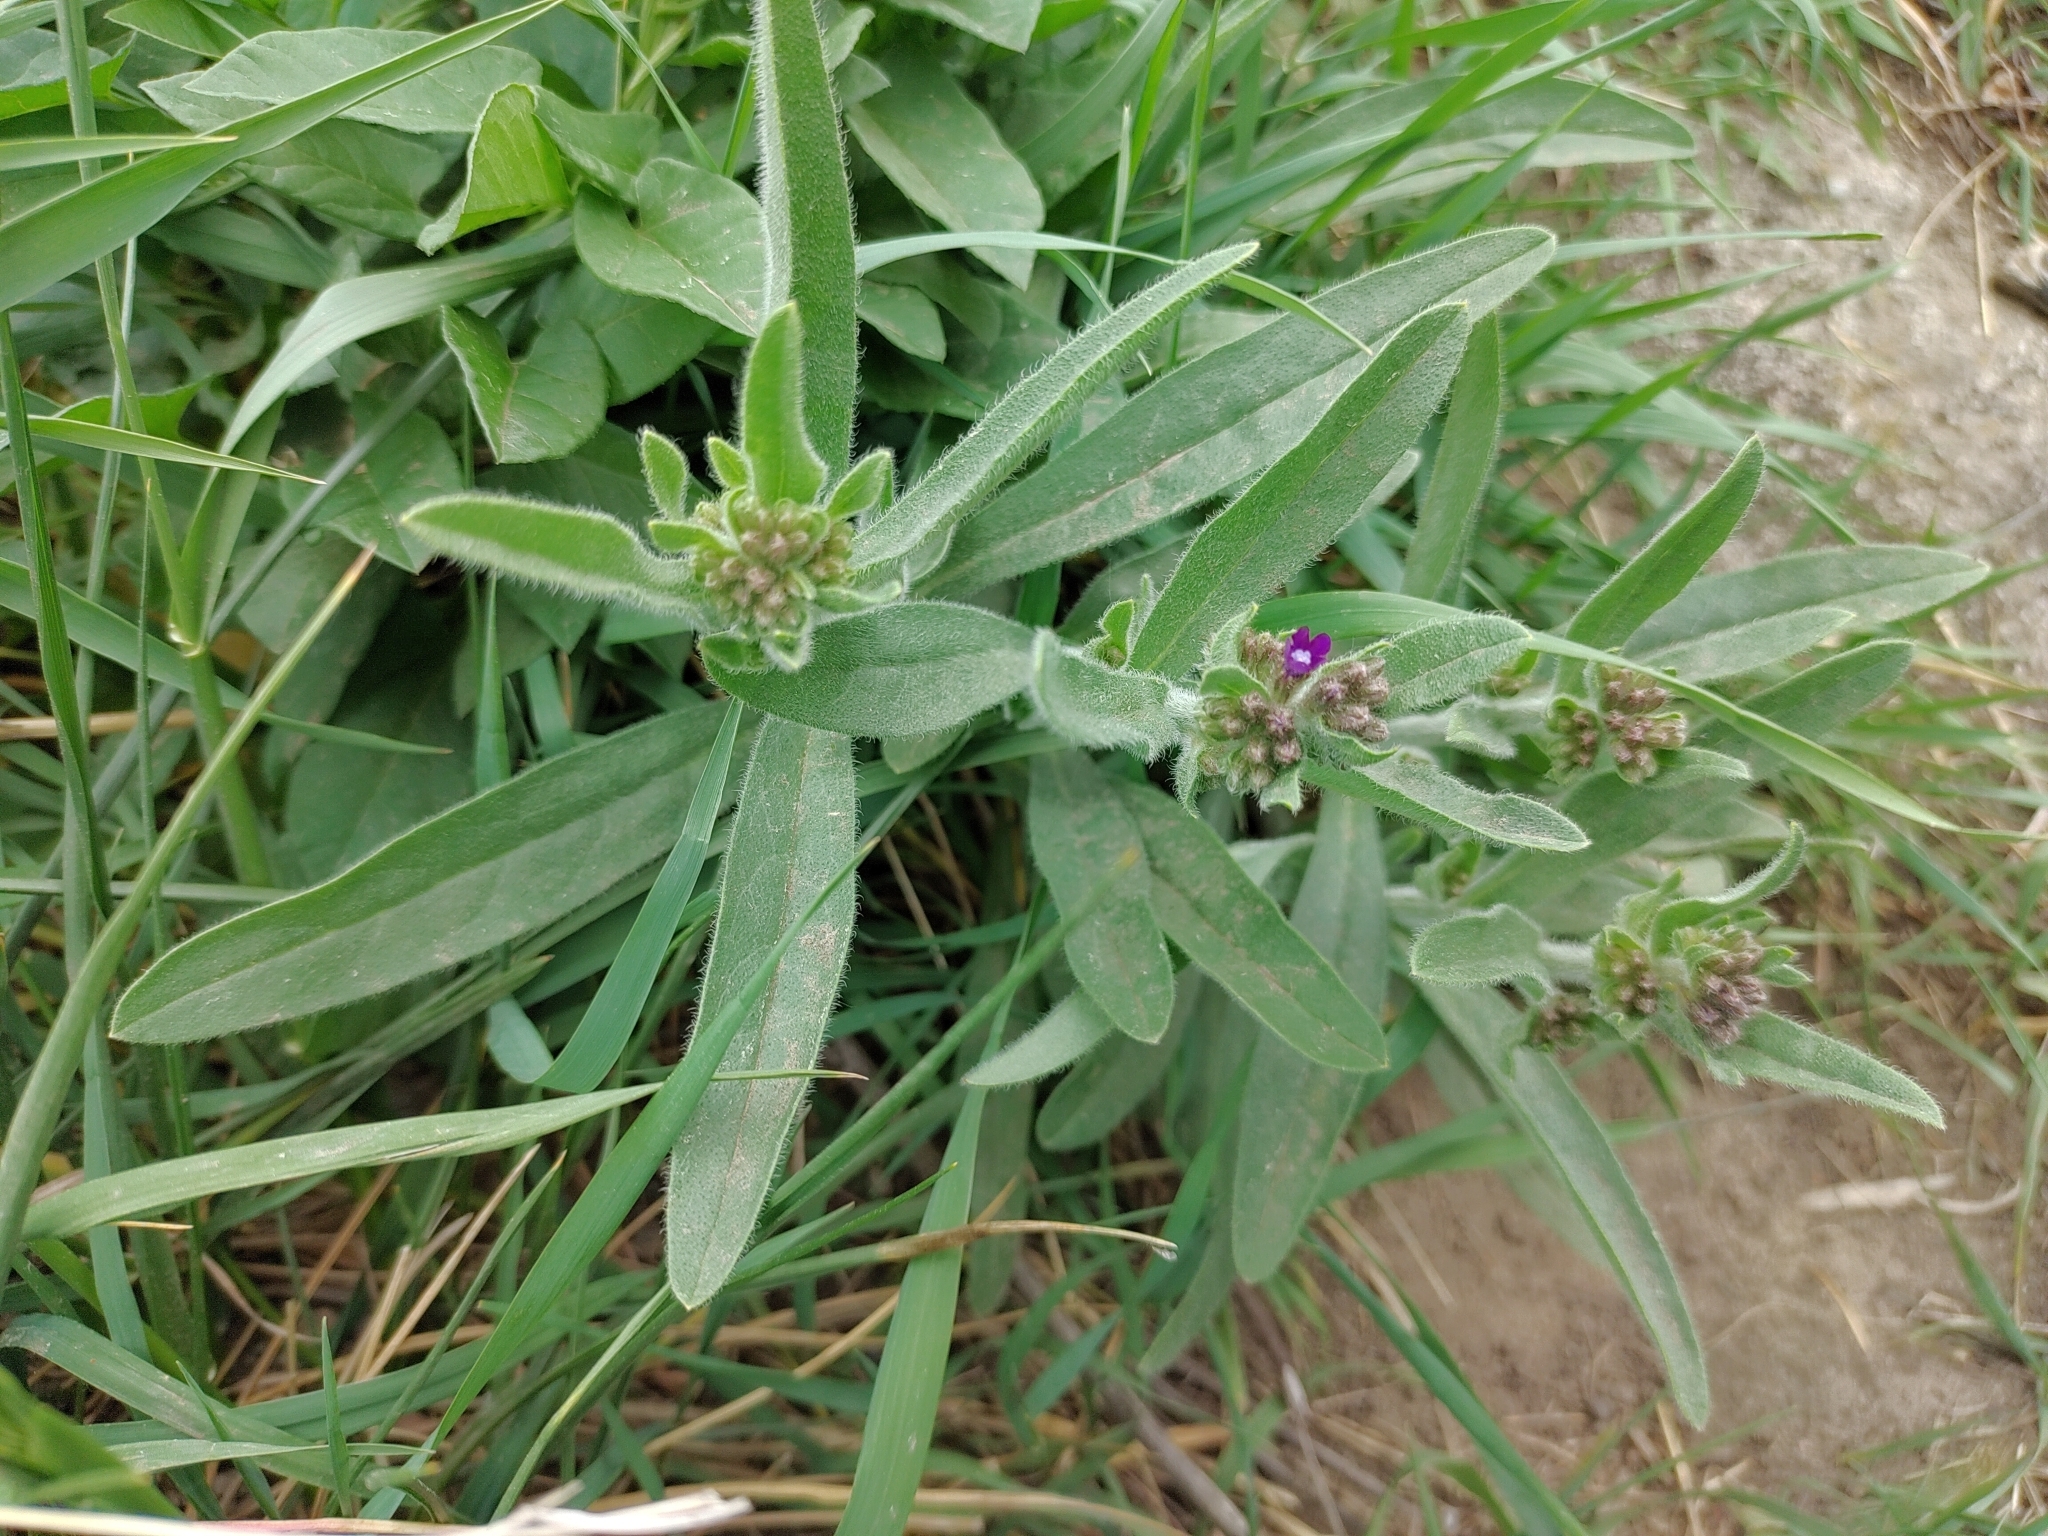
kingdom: Plantae
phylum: Tracheophyta
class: Magnoliopsida
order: Boraginales
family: Boraginaceae
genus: Anchusa
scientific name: Anchusa officinalis
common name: Alkanet
